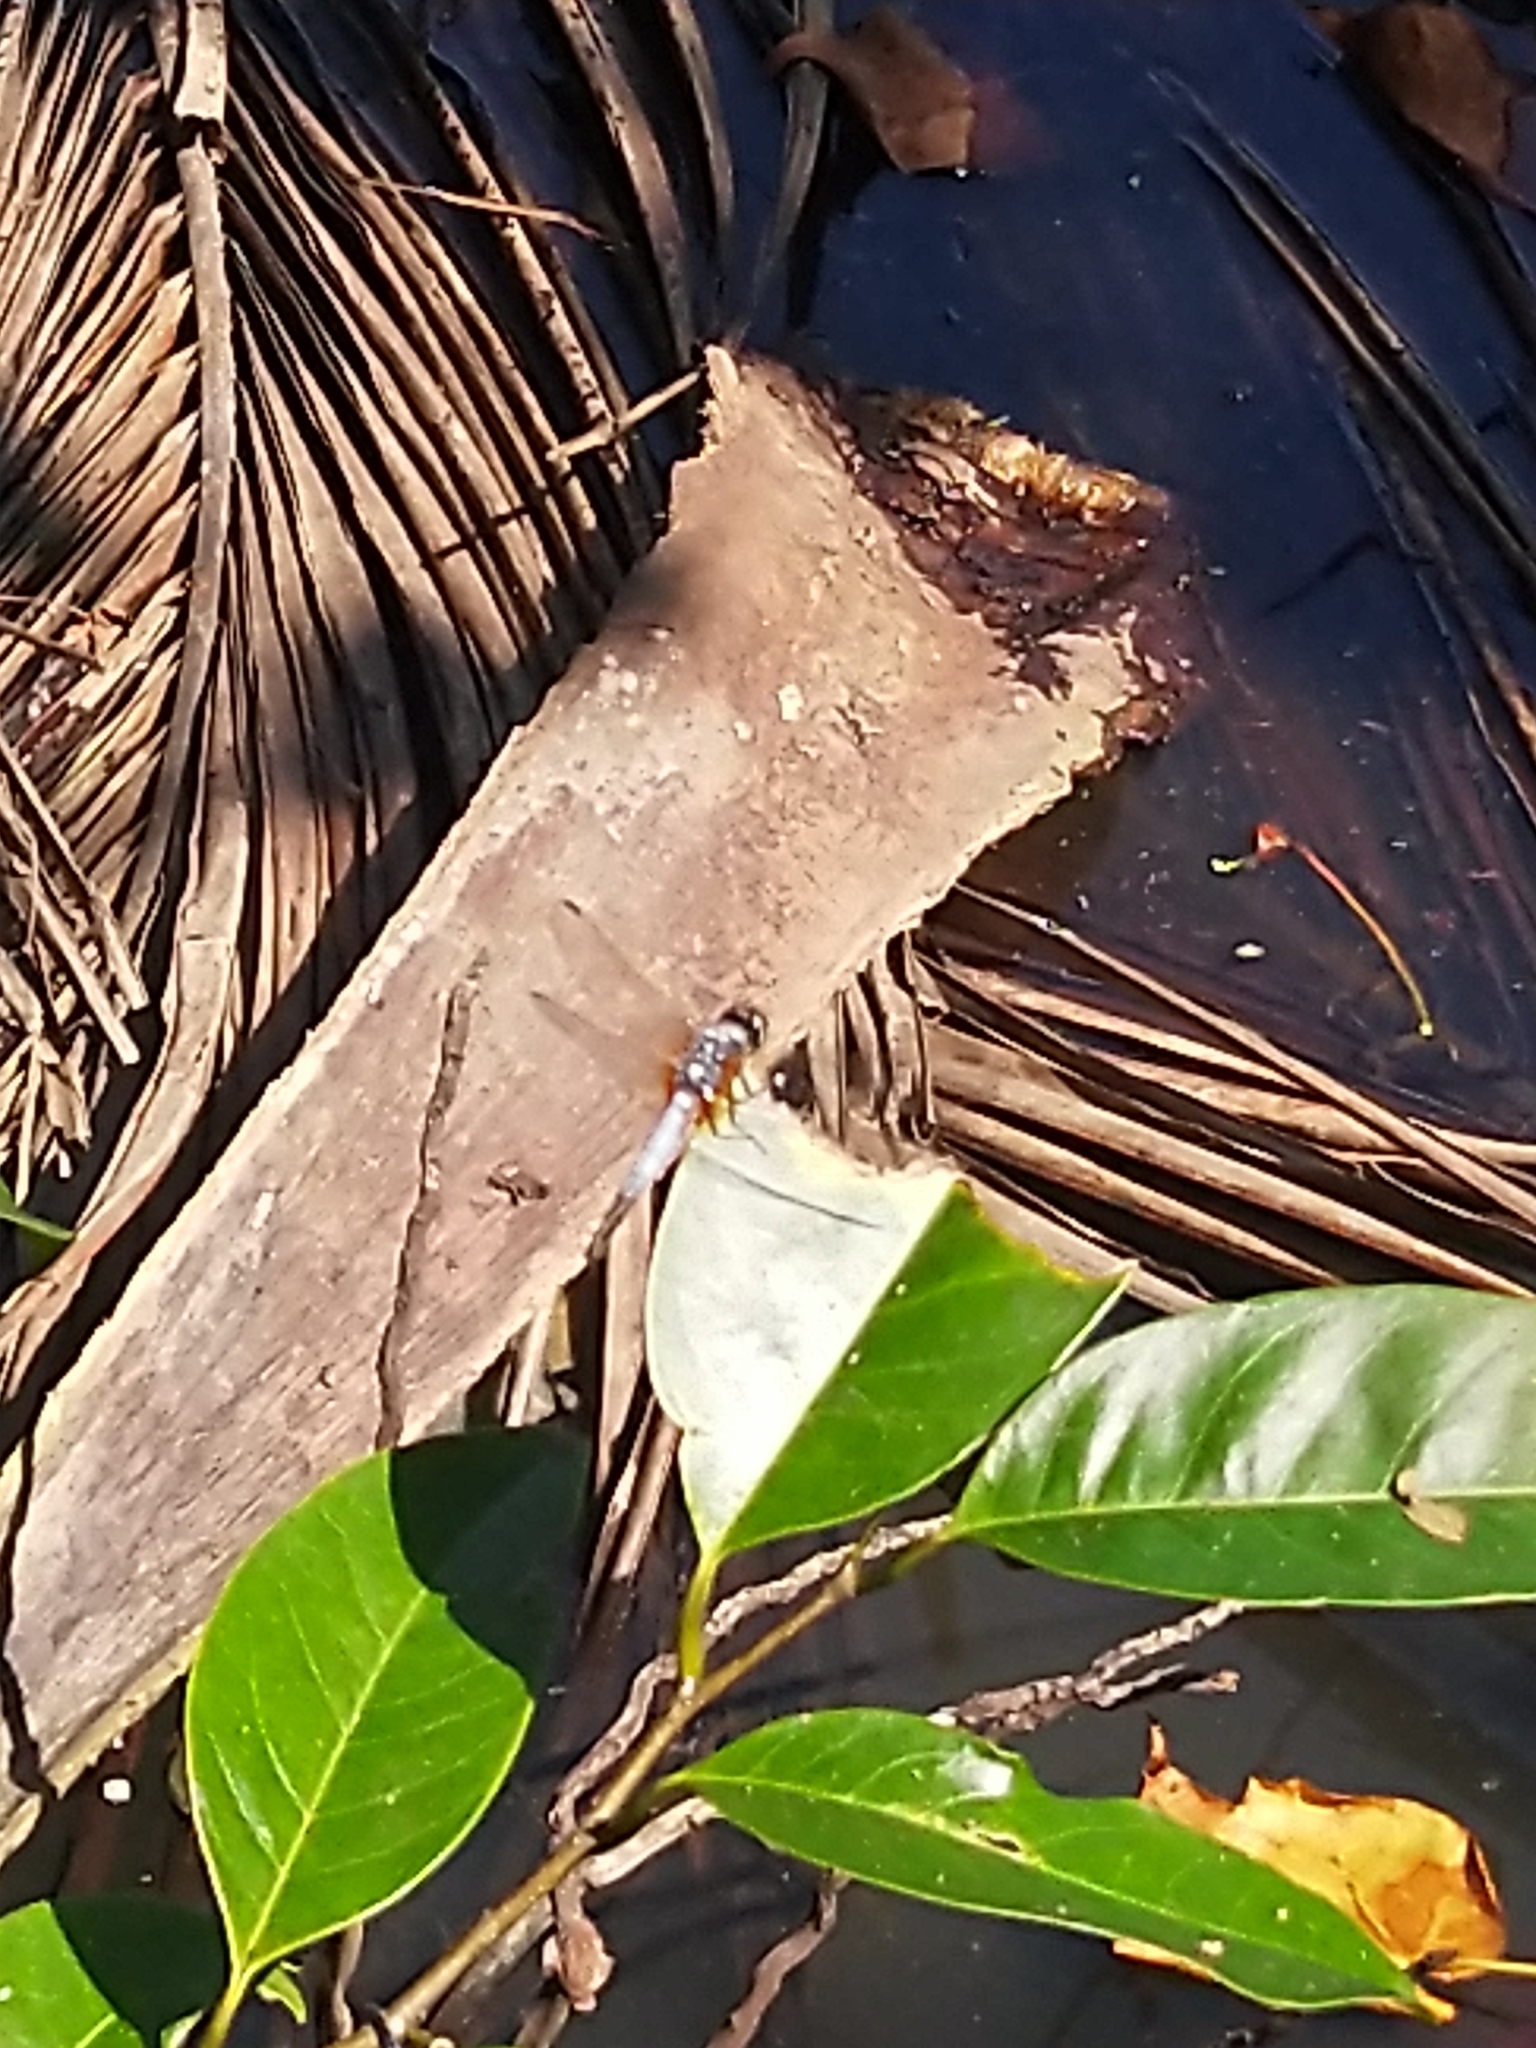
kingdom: Animalia
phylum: Arthropoda
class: Insecta
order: Odonata
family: Libellulidae
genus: Brachydiplax
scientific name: Brachydiplax chalybea
